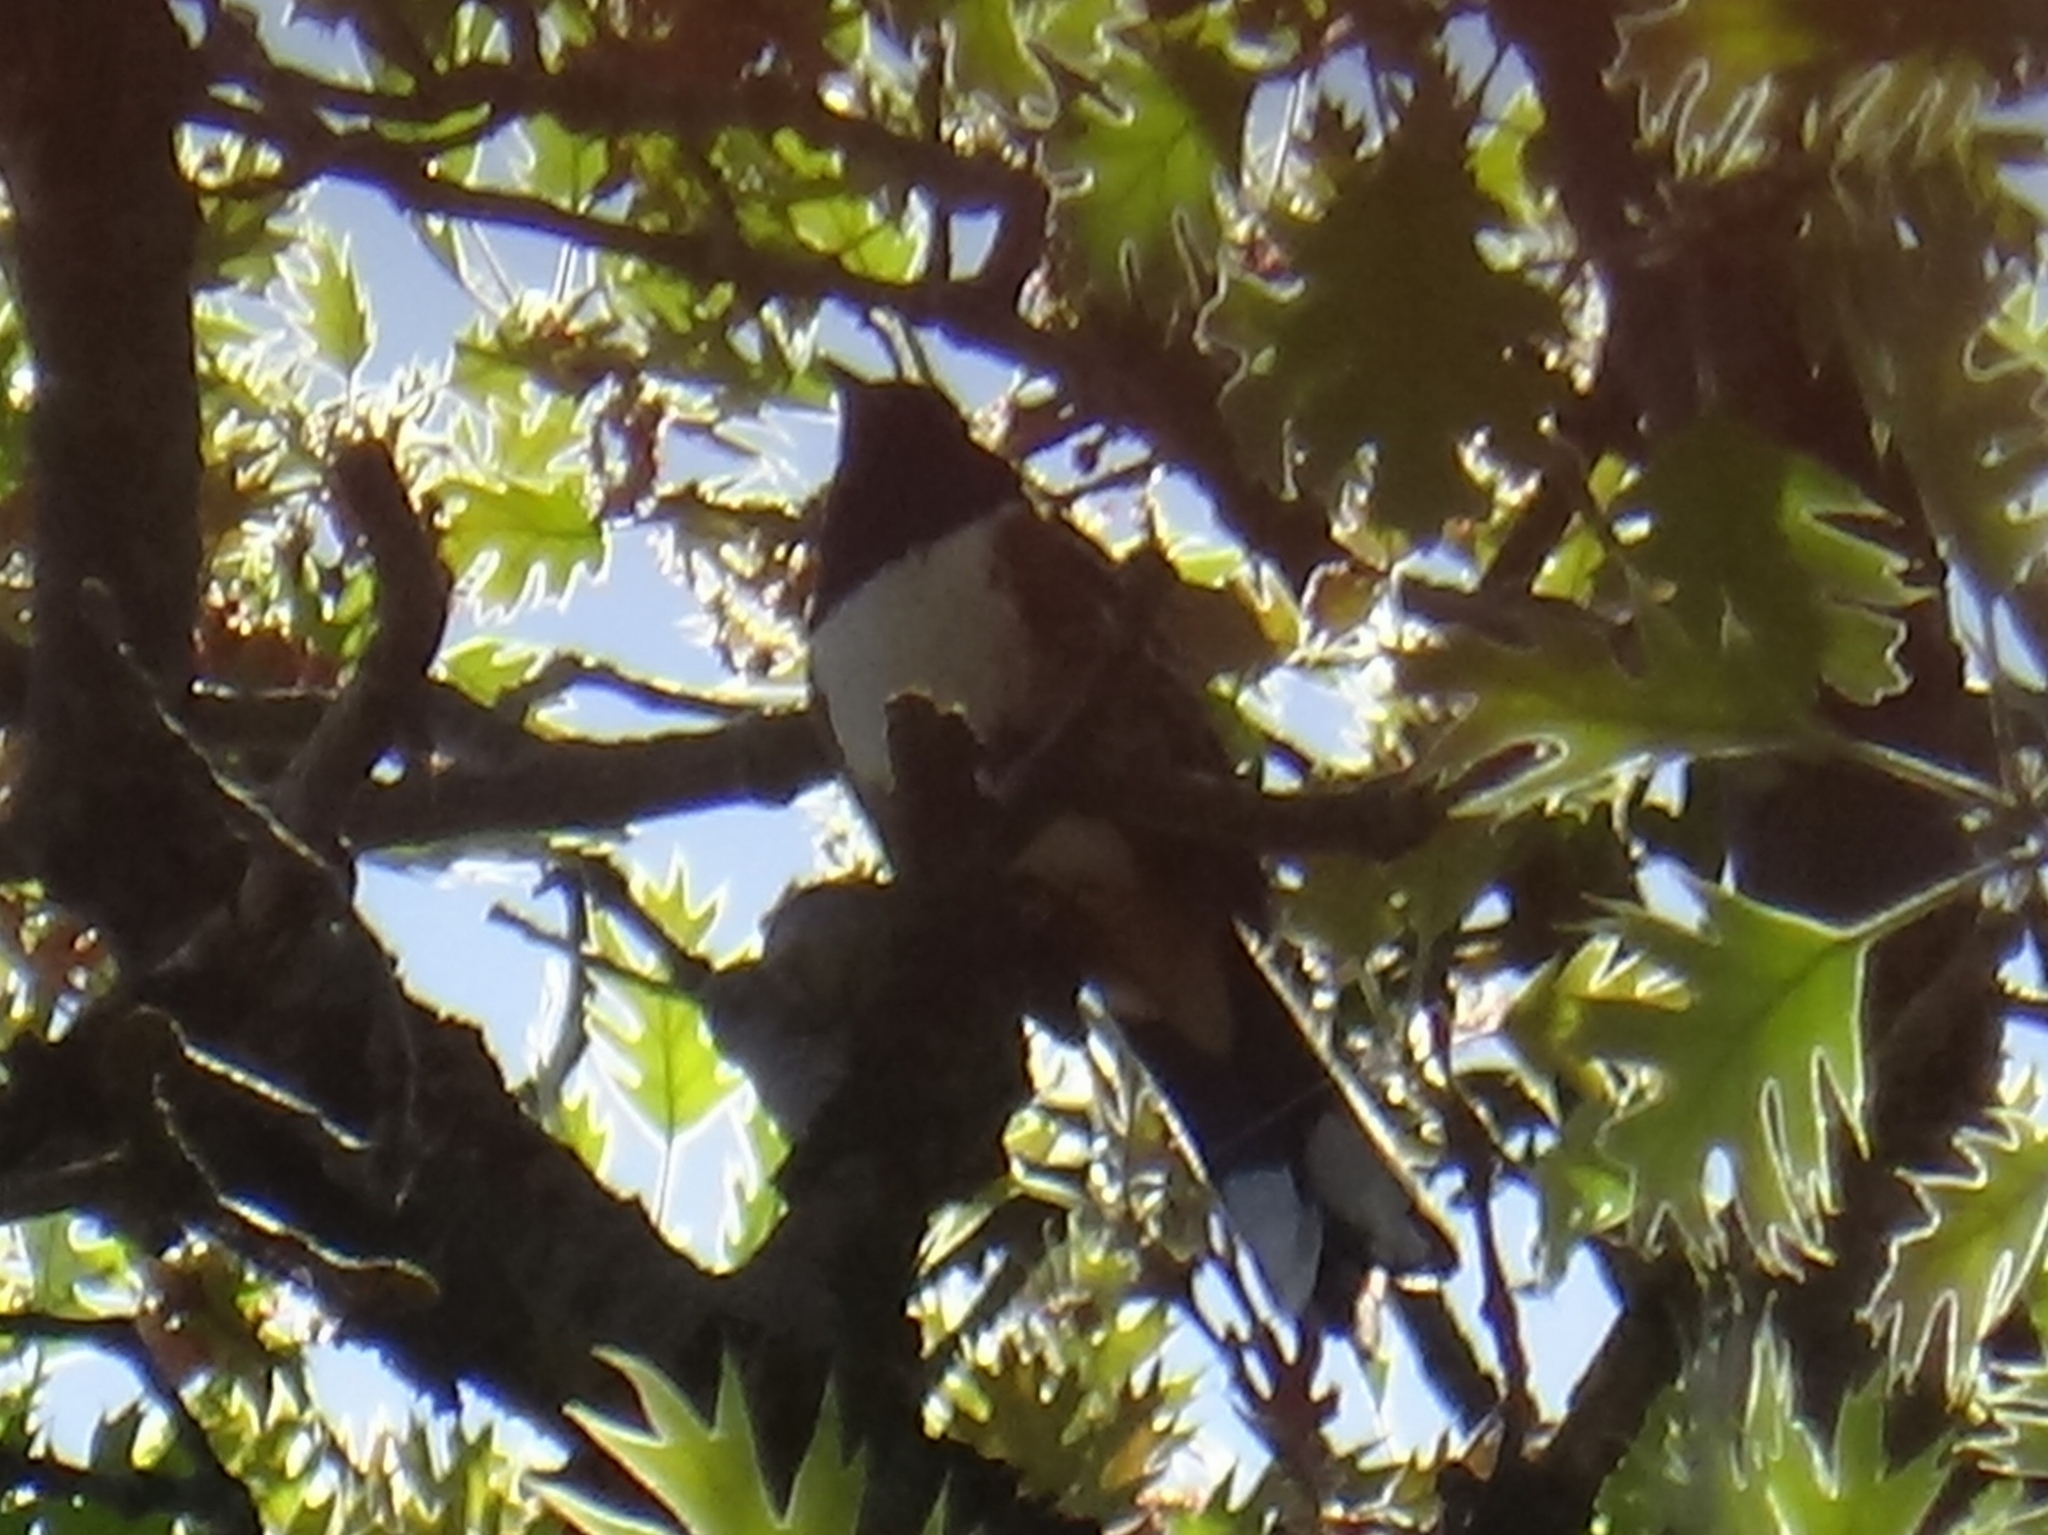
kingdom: Animalia
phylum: Chordata
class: Aves
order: Passeriformes
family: Passerellidae
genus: Pipilo
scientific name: Pipilo maculatus
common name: Spotted towhee
